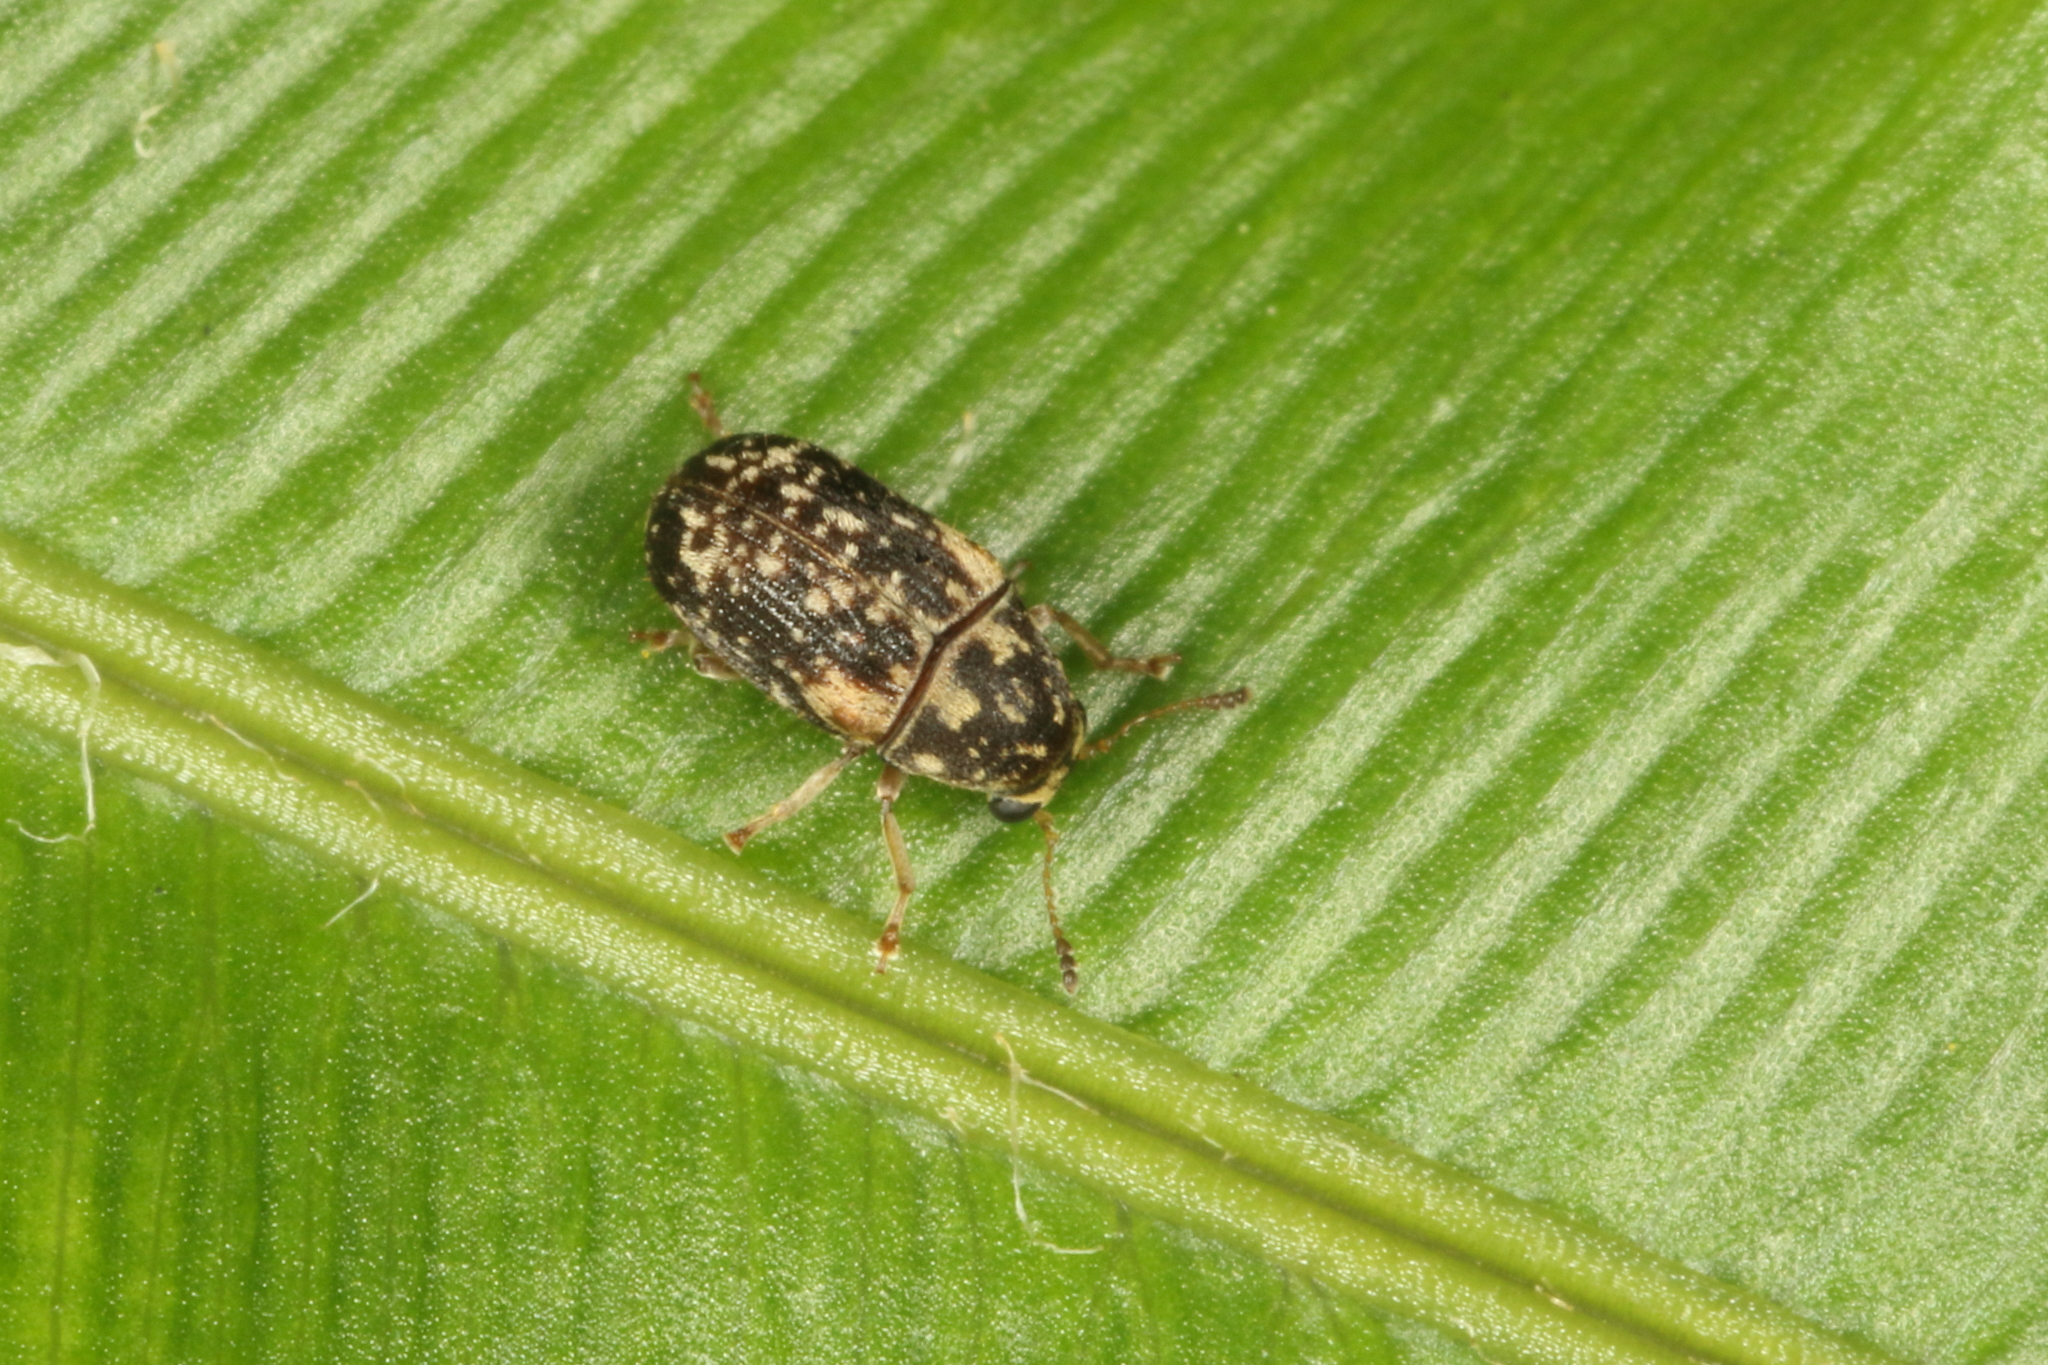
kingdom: Animalia
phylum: Arthropoda
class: Insecta
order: Coleoptera
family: Anthribidae
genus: Liromus
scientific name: Liromus
